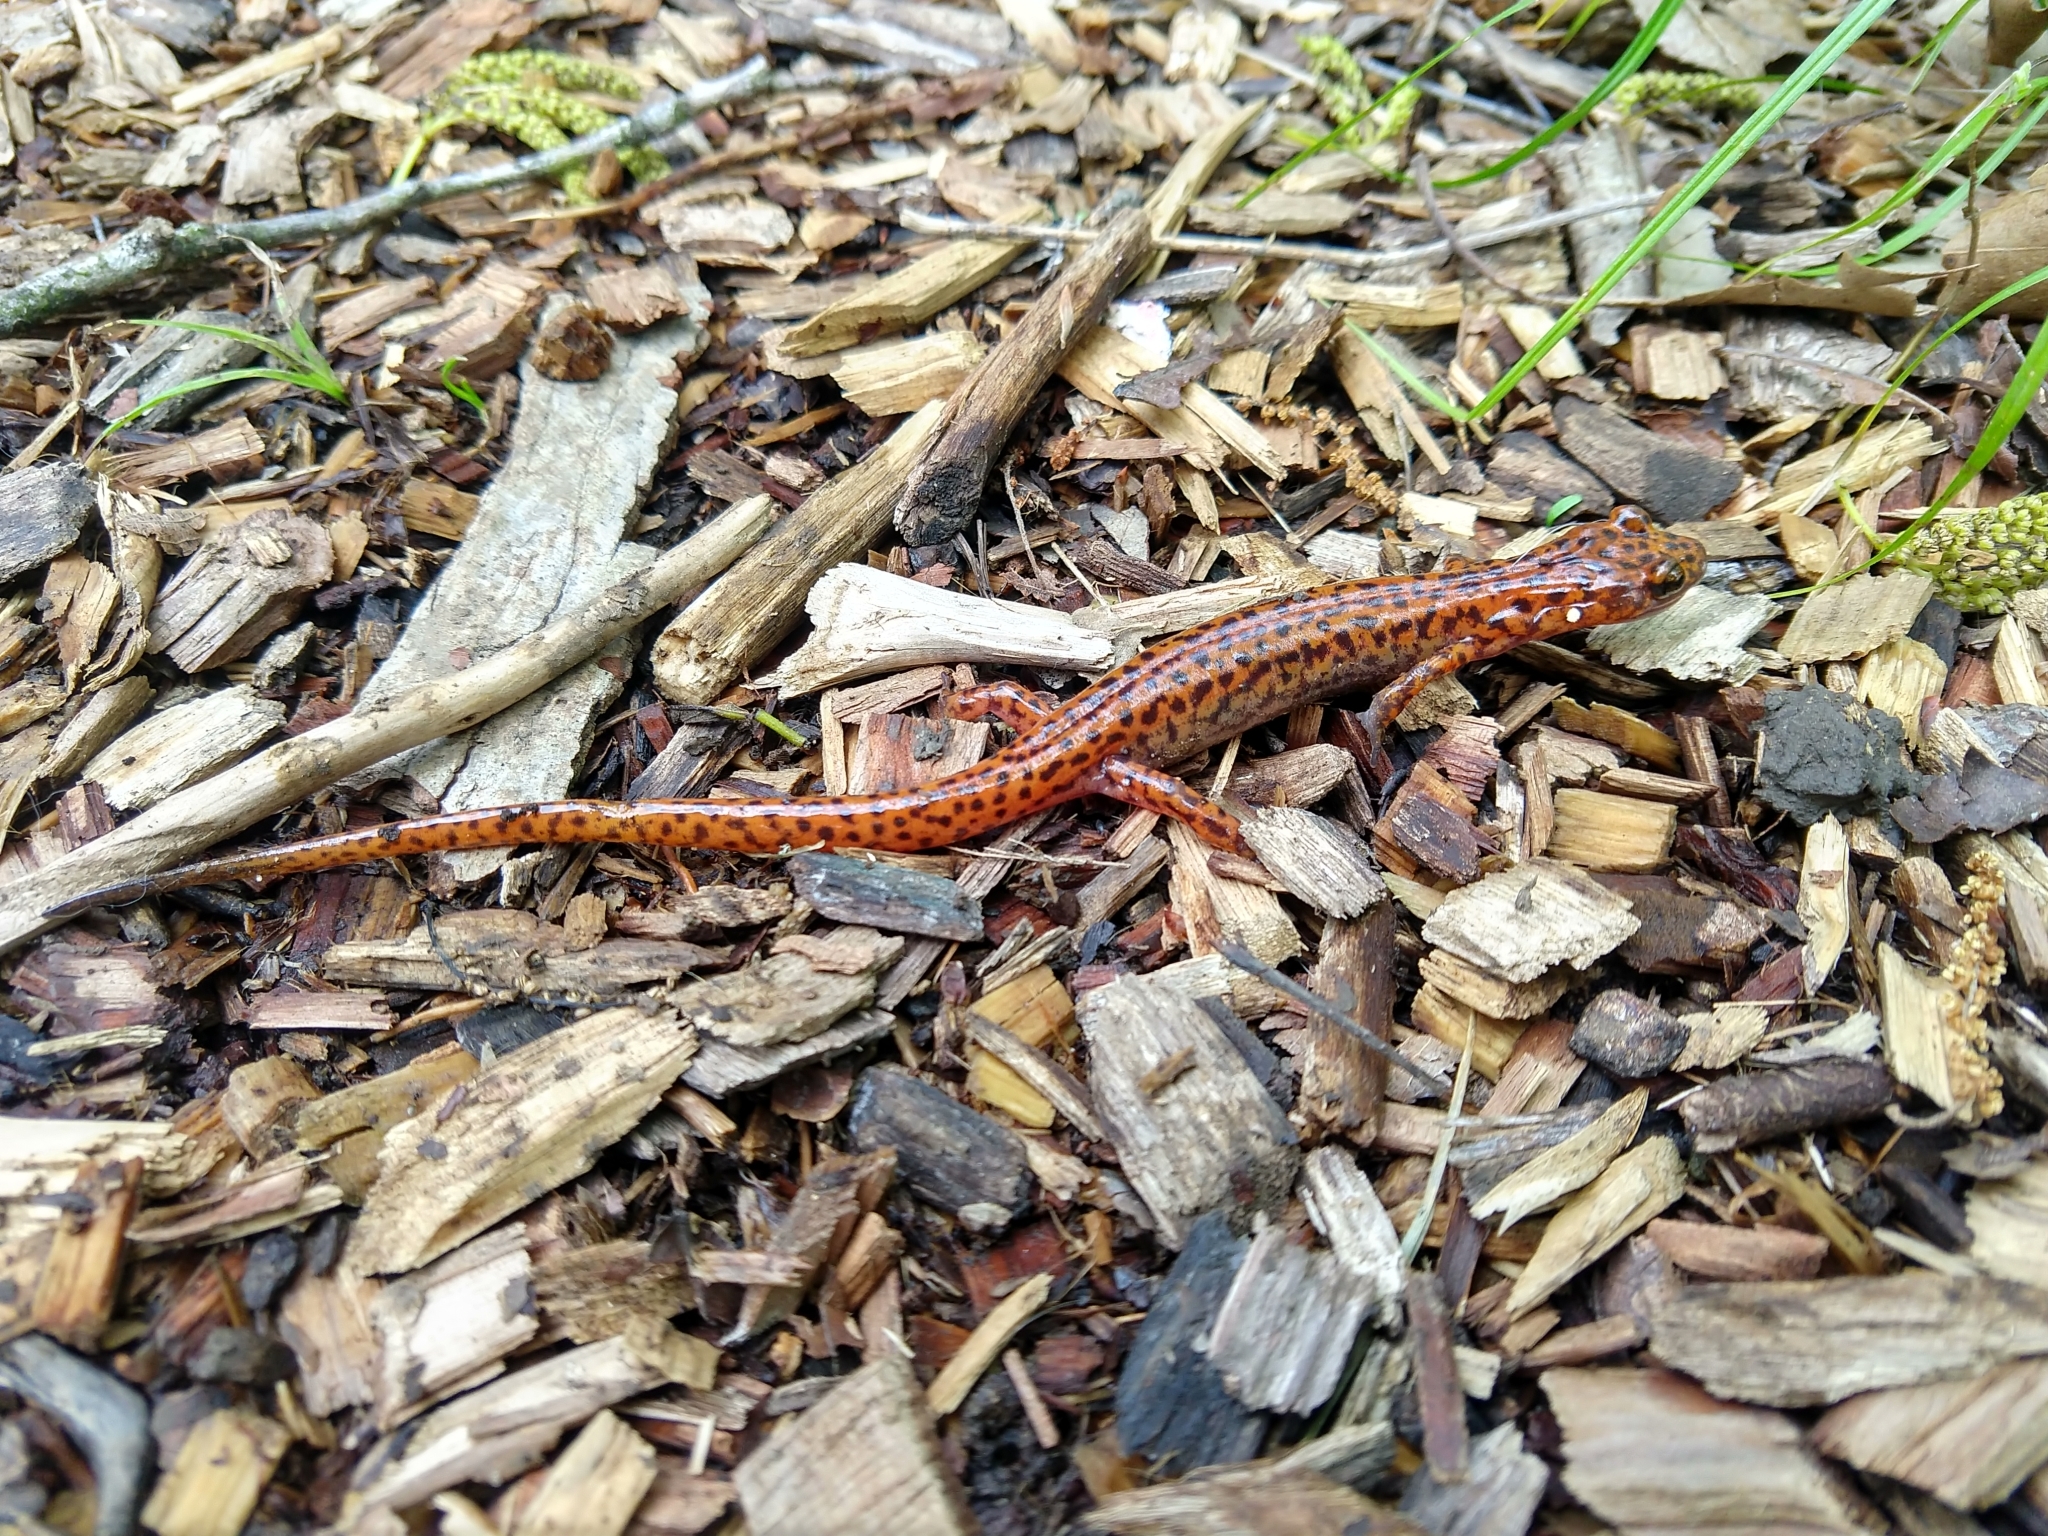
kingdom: Animalia
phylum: Chordata
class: Amphibia
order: Caudata
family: Plethodontidae
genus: Eurycea
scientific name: Eurycea lucifuga
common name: Cave salamander
